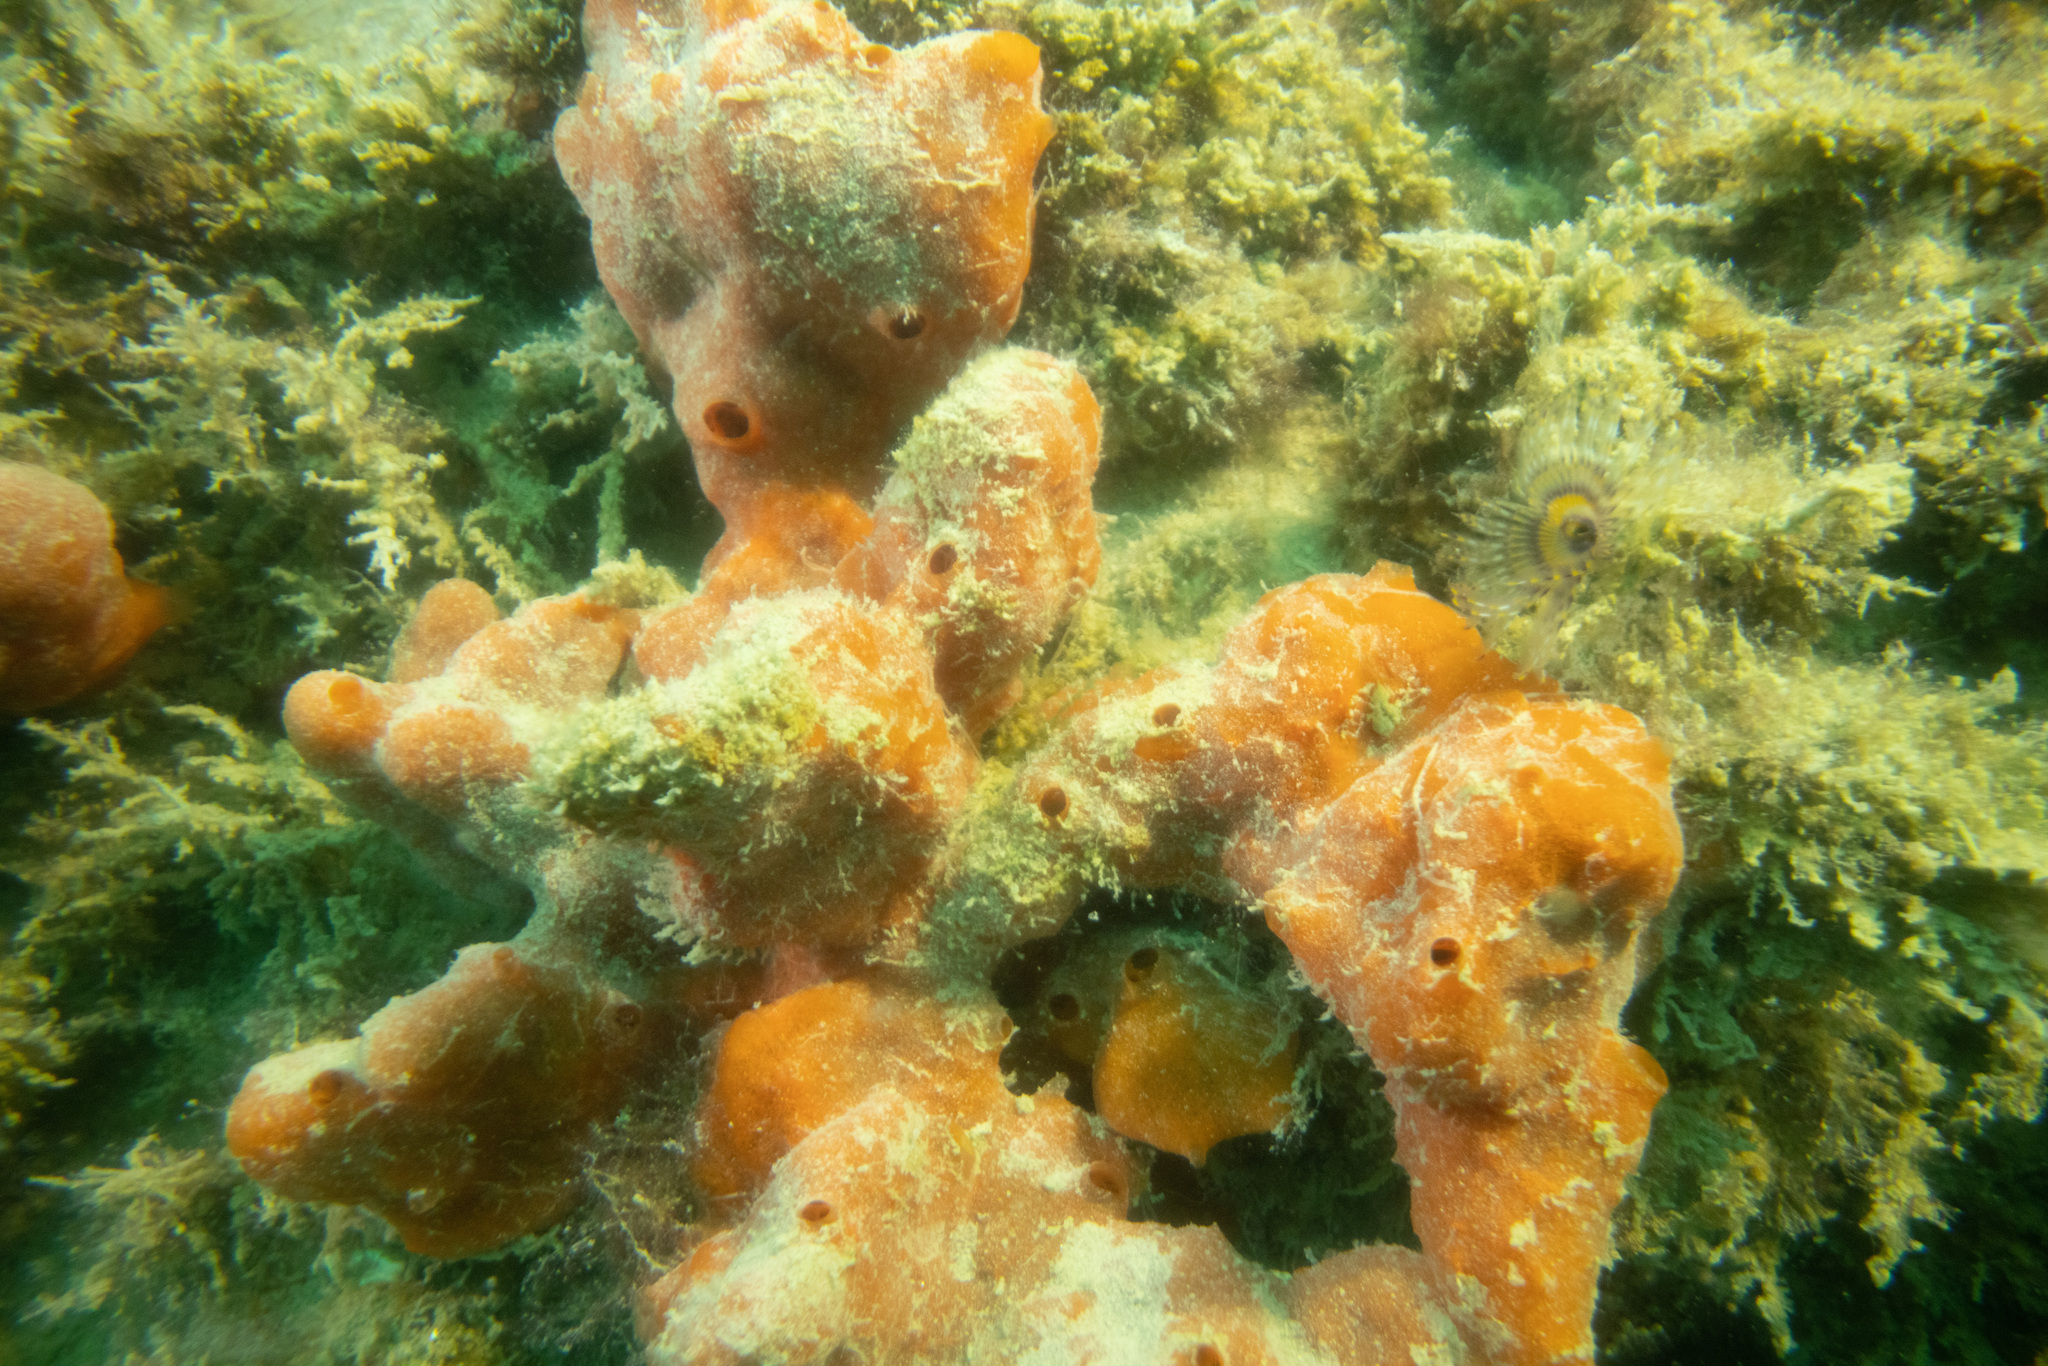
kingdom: Animalia
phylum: Porifera
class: Demospongiae
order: Poecilosclerida
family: Crellidae
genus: Crella
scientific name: Crella incrustans
